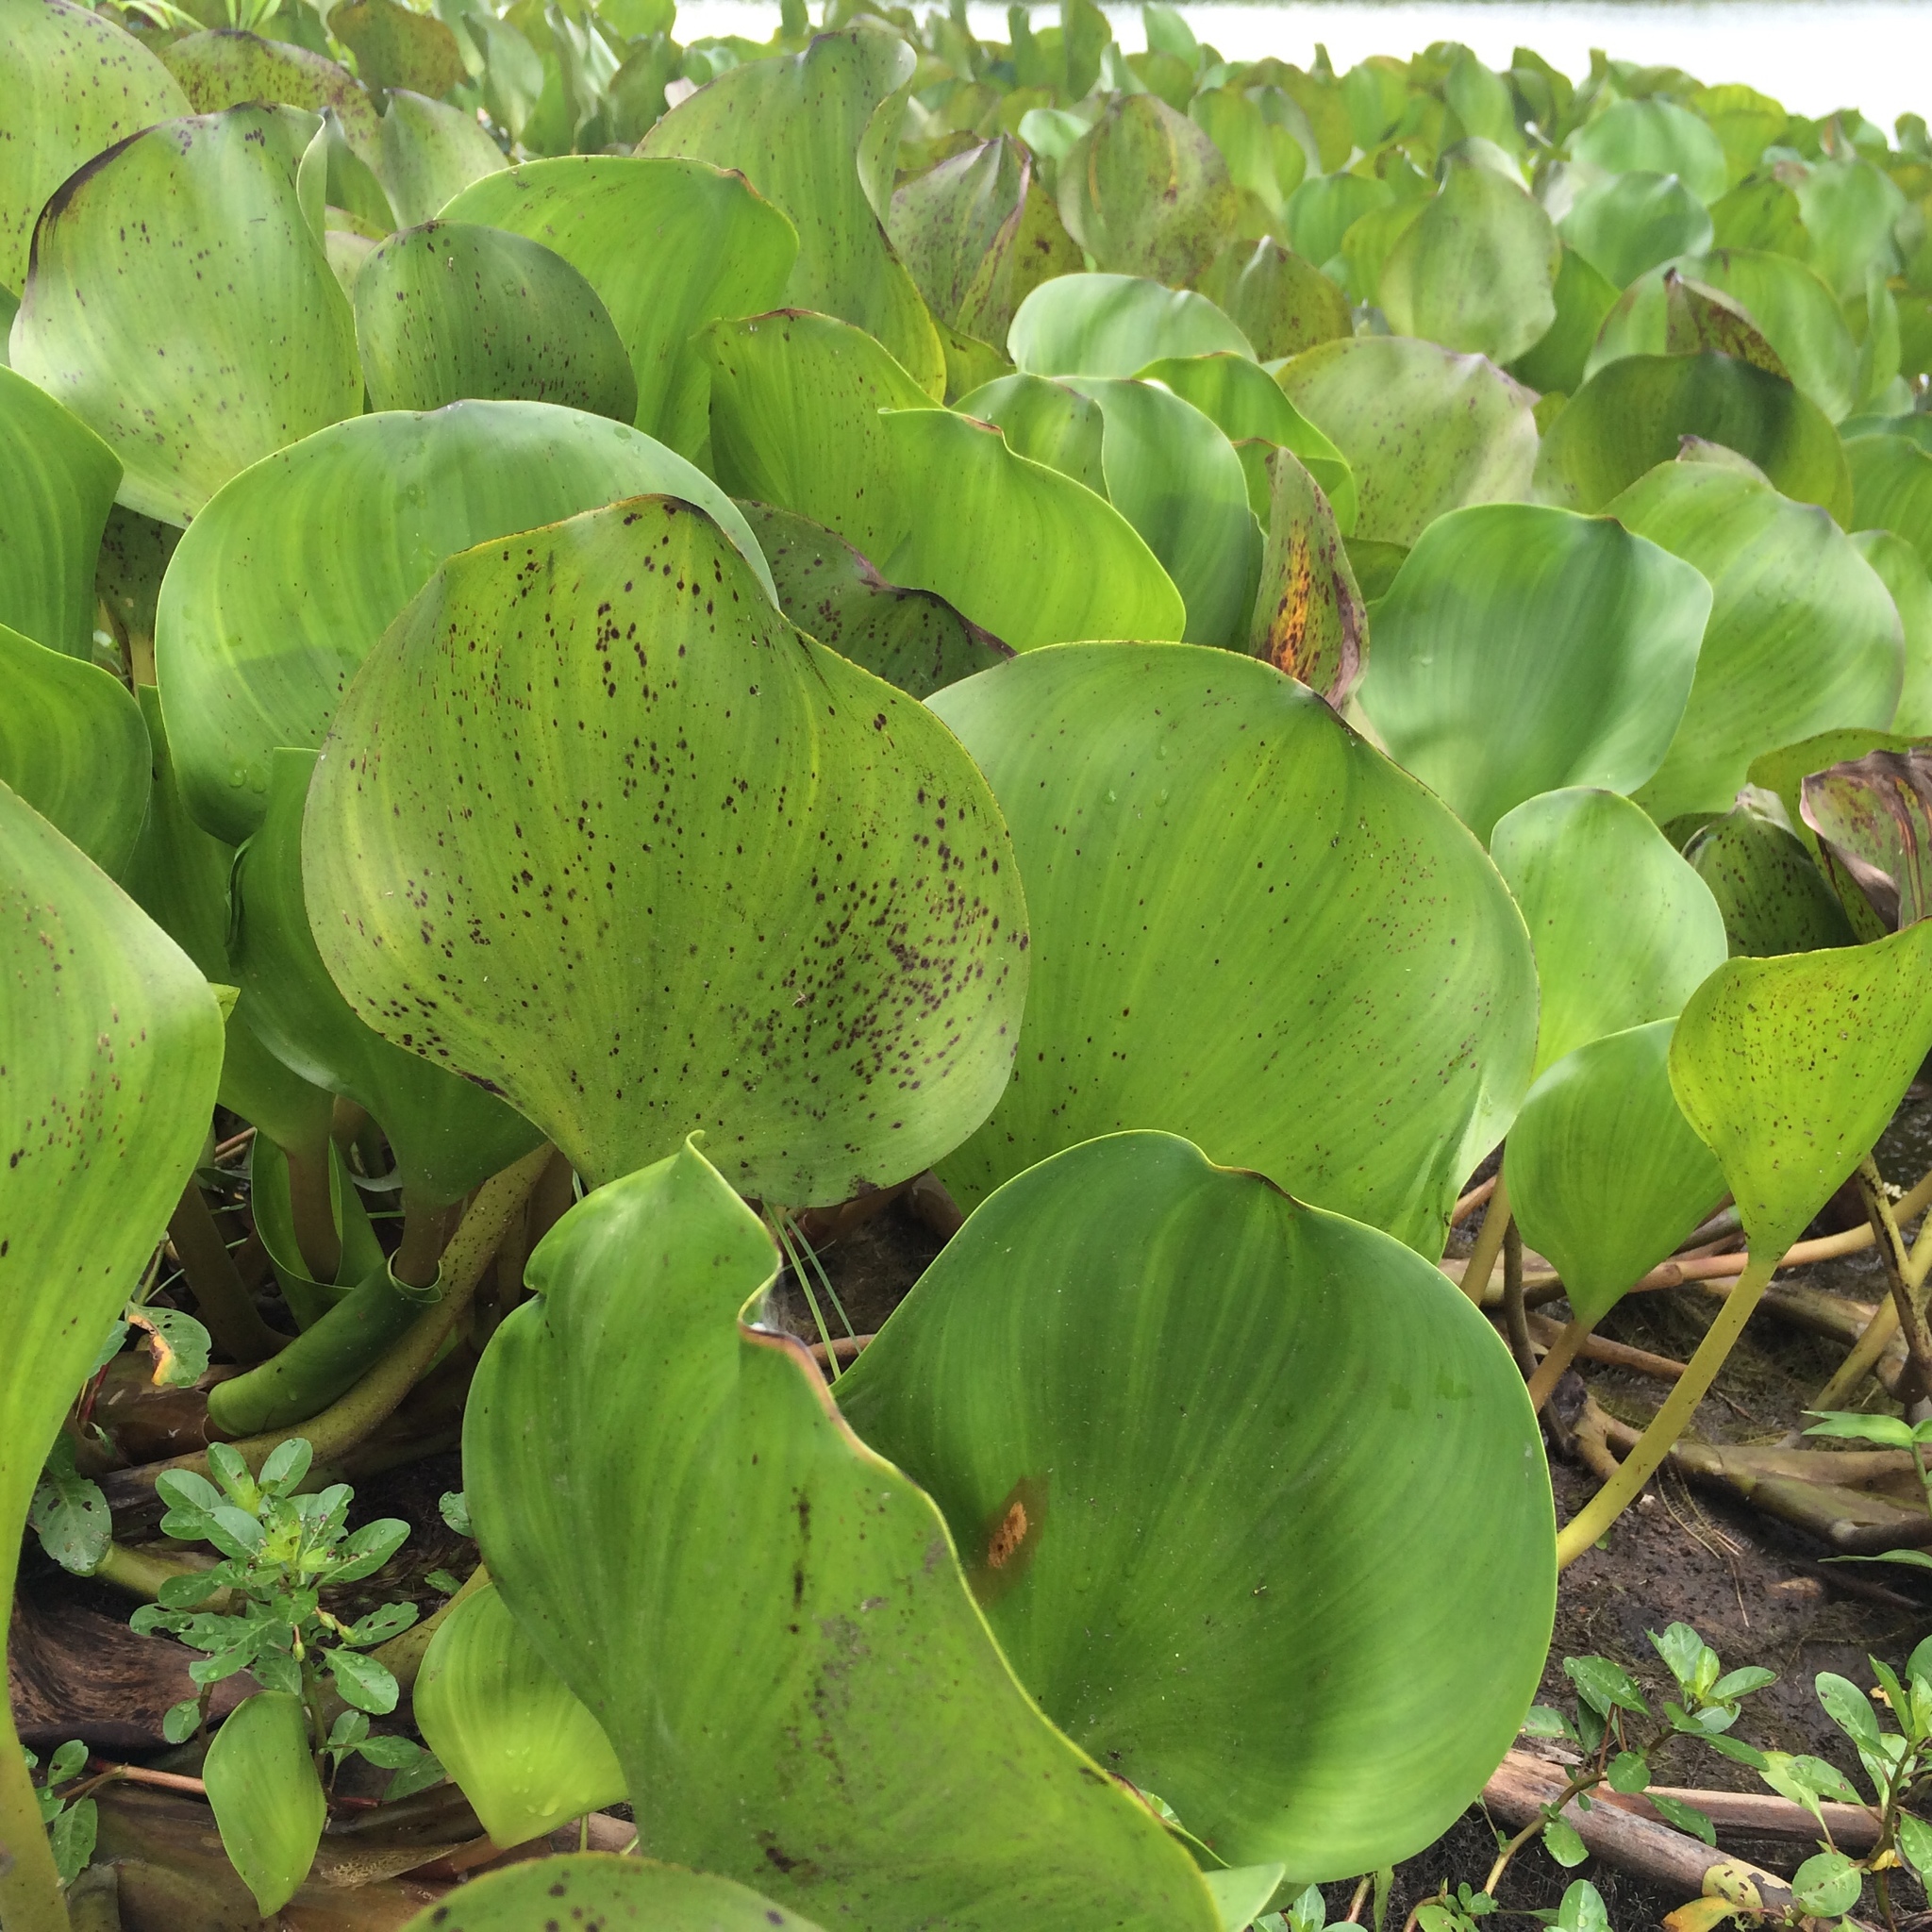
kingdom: Plantae
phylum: Tracheophyta
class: Liliopsida
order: Commelinales
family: Pontederiaceae
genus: Pontederia
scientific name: Pontederia crassipes
